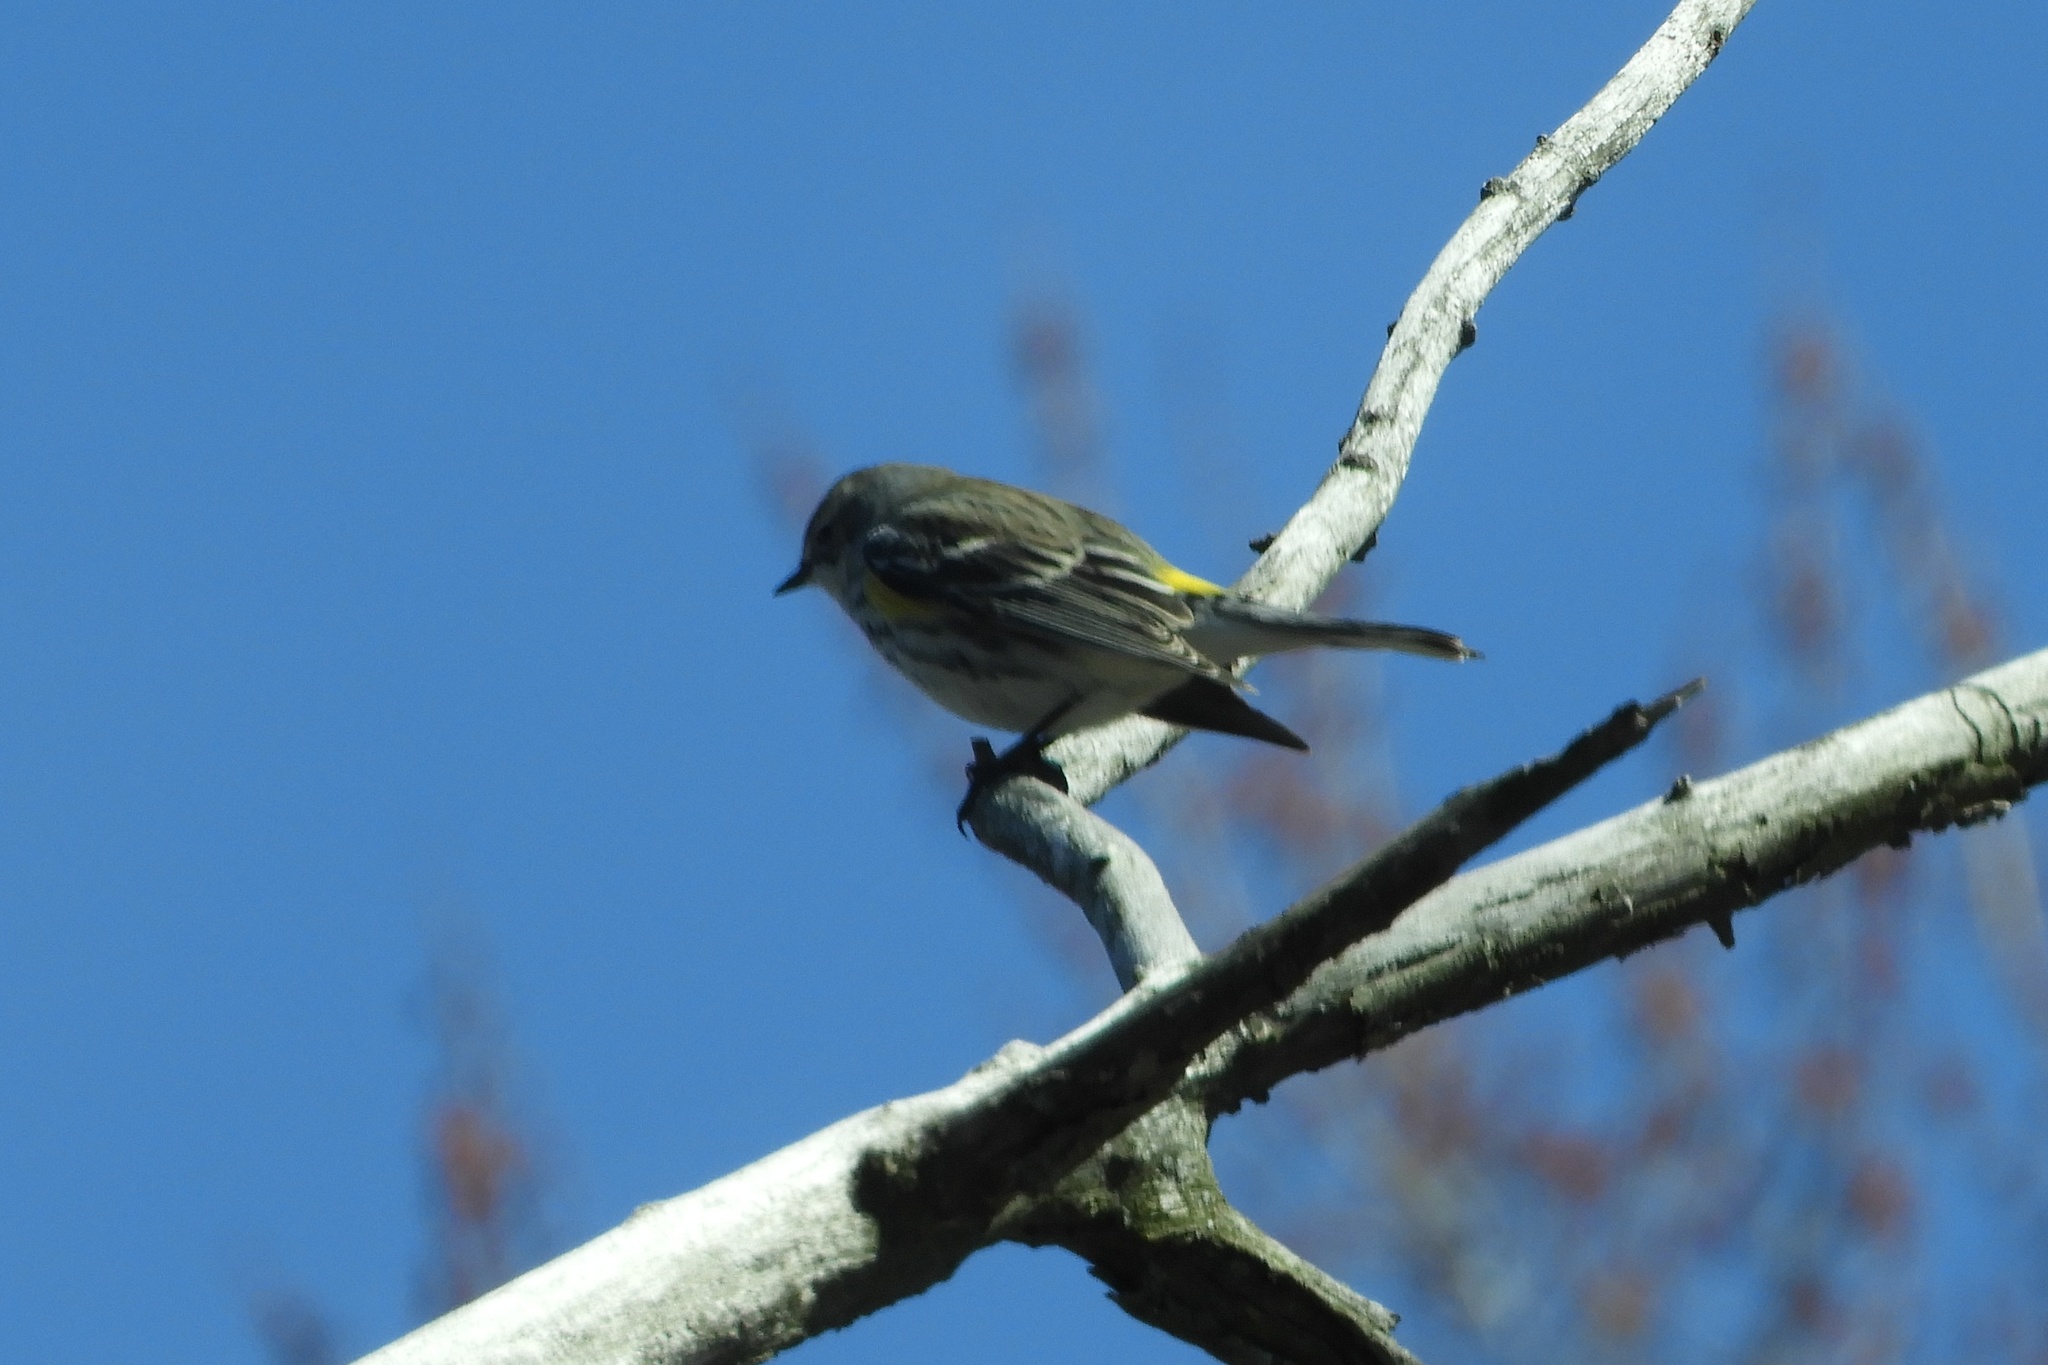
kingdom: Animalia
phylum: Chordata
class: Aves
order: Passeriformes
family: Parulidae
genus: Setophaga
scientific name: Setophaga coronata
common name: Myrtle warbler
